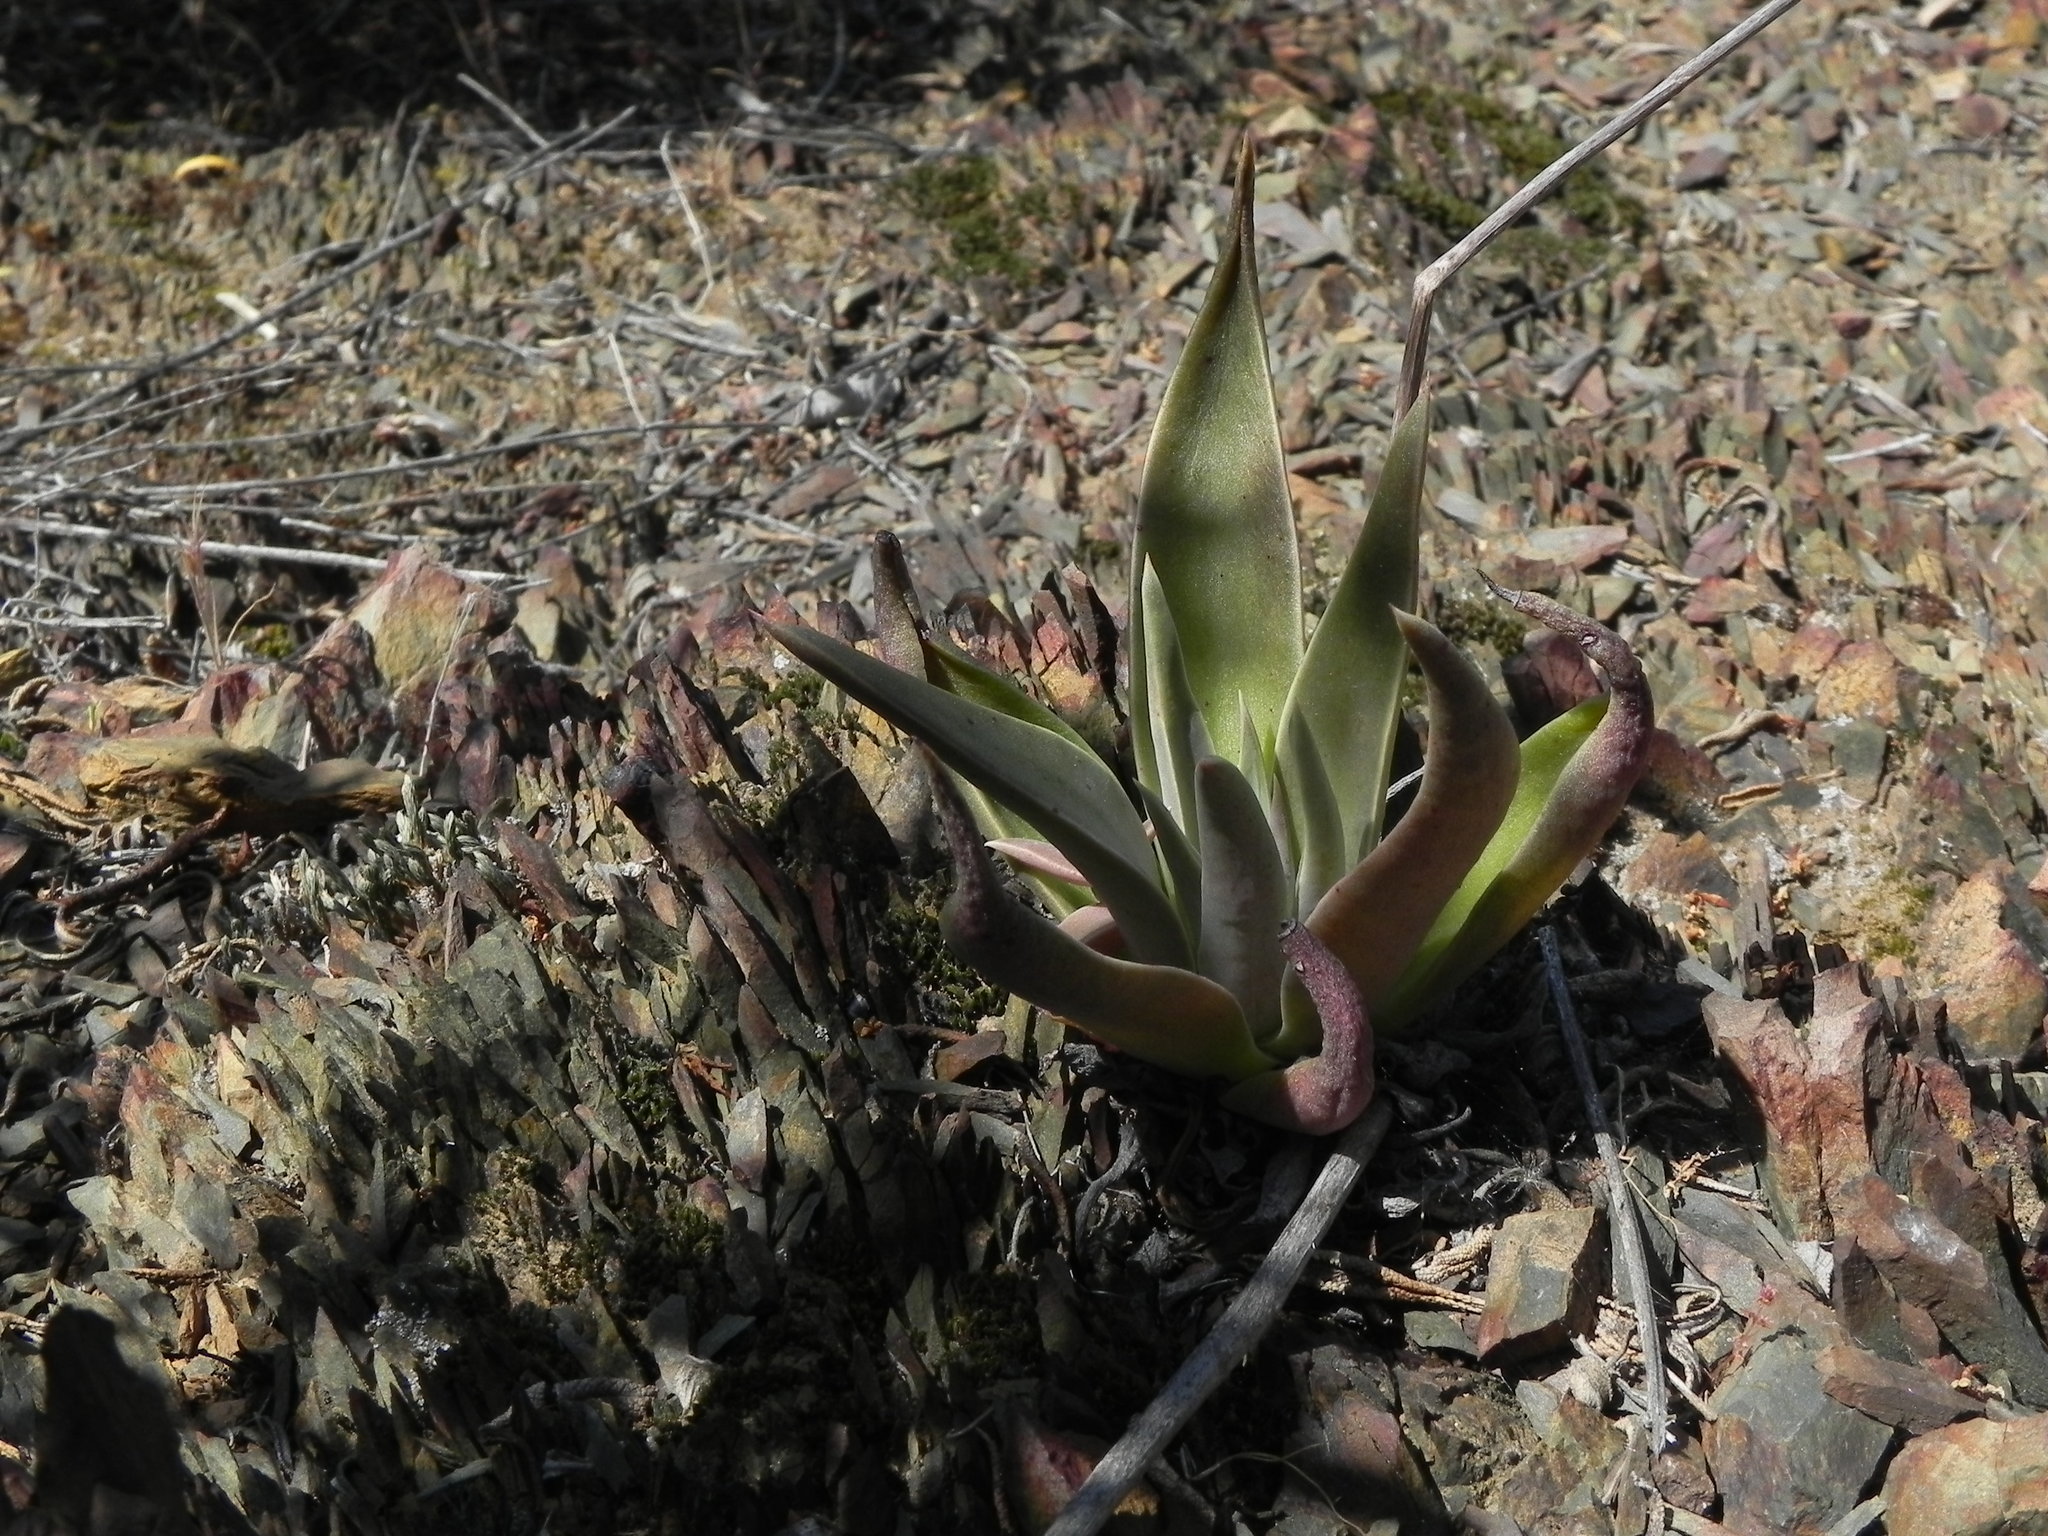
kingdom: Plantae
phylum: Tracheophyta
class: Magnoliopsida
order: Saxifragales
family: Crassulaceae
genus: Dudleya
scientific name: Dudleya lanceolata
